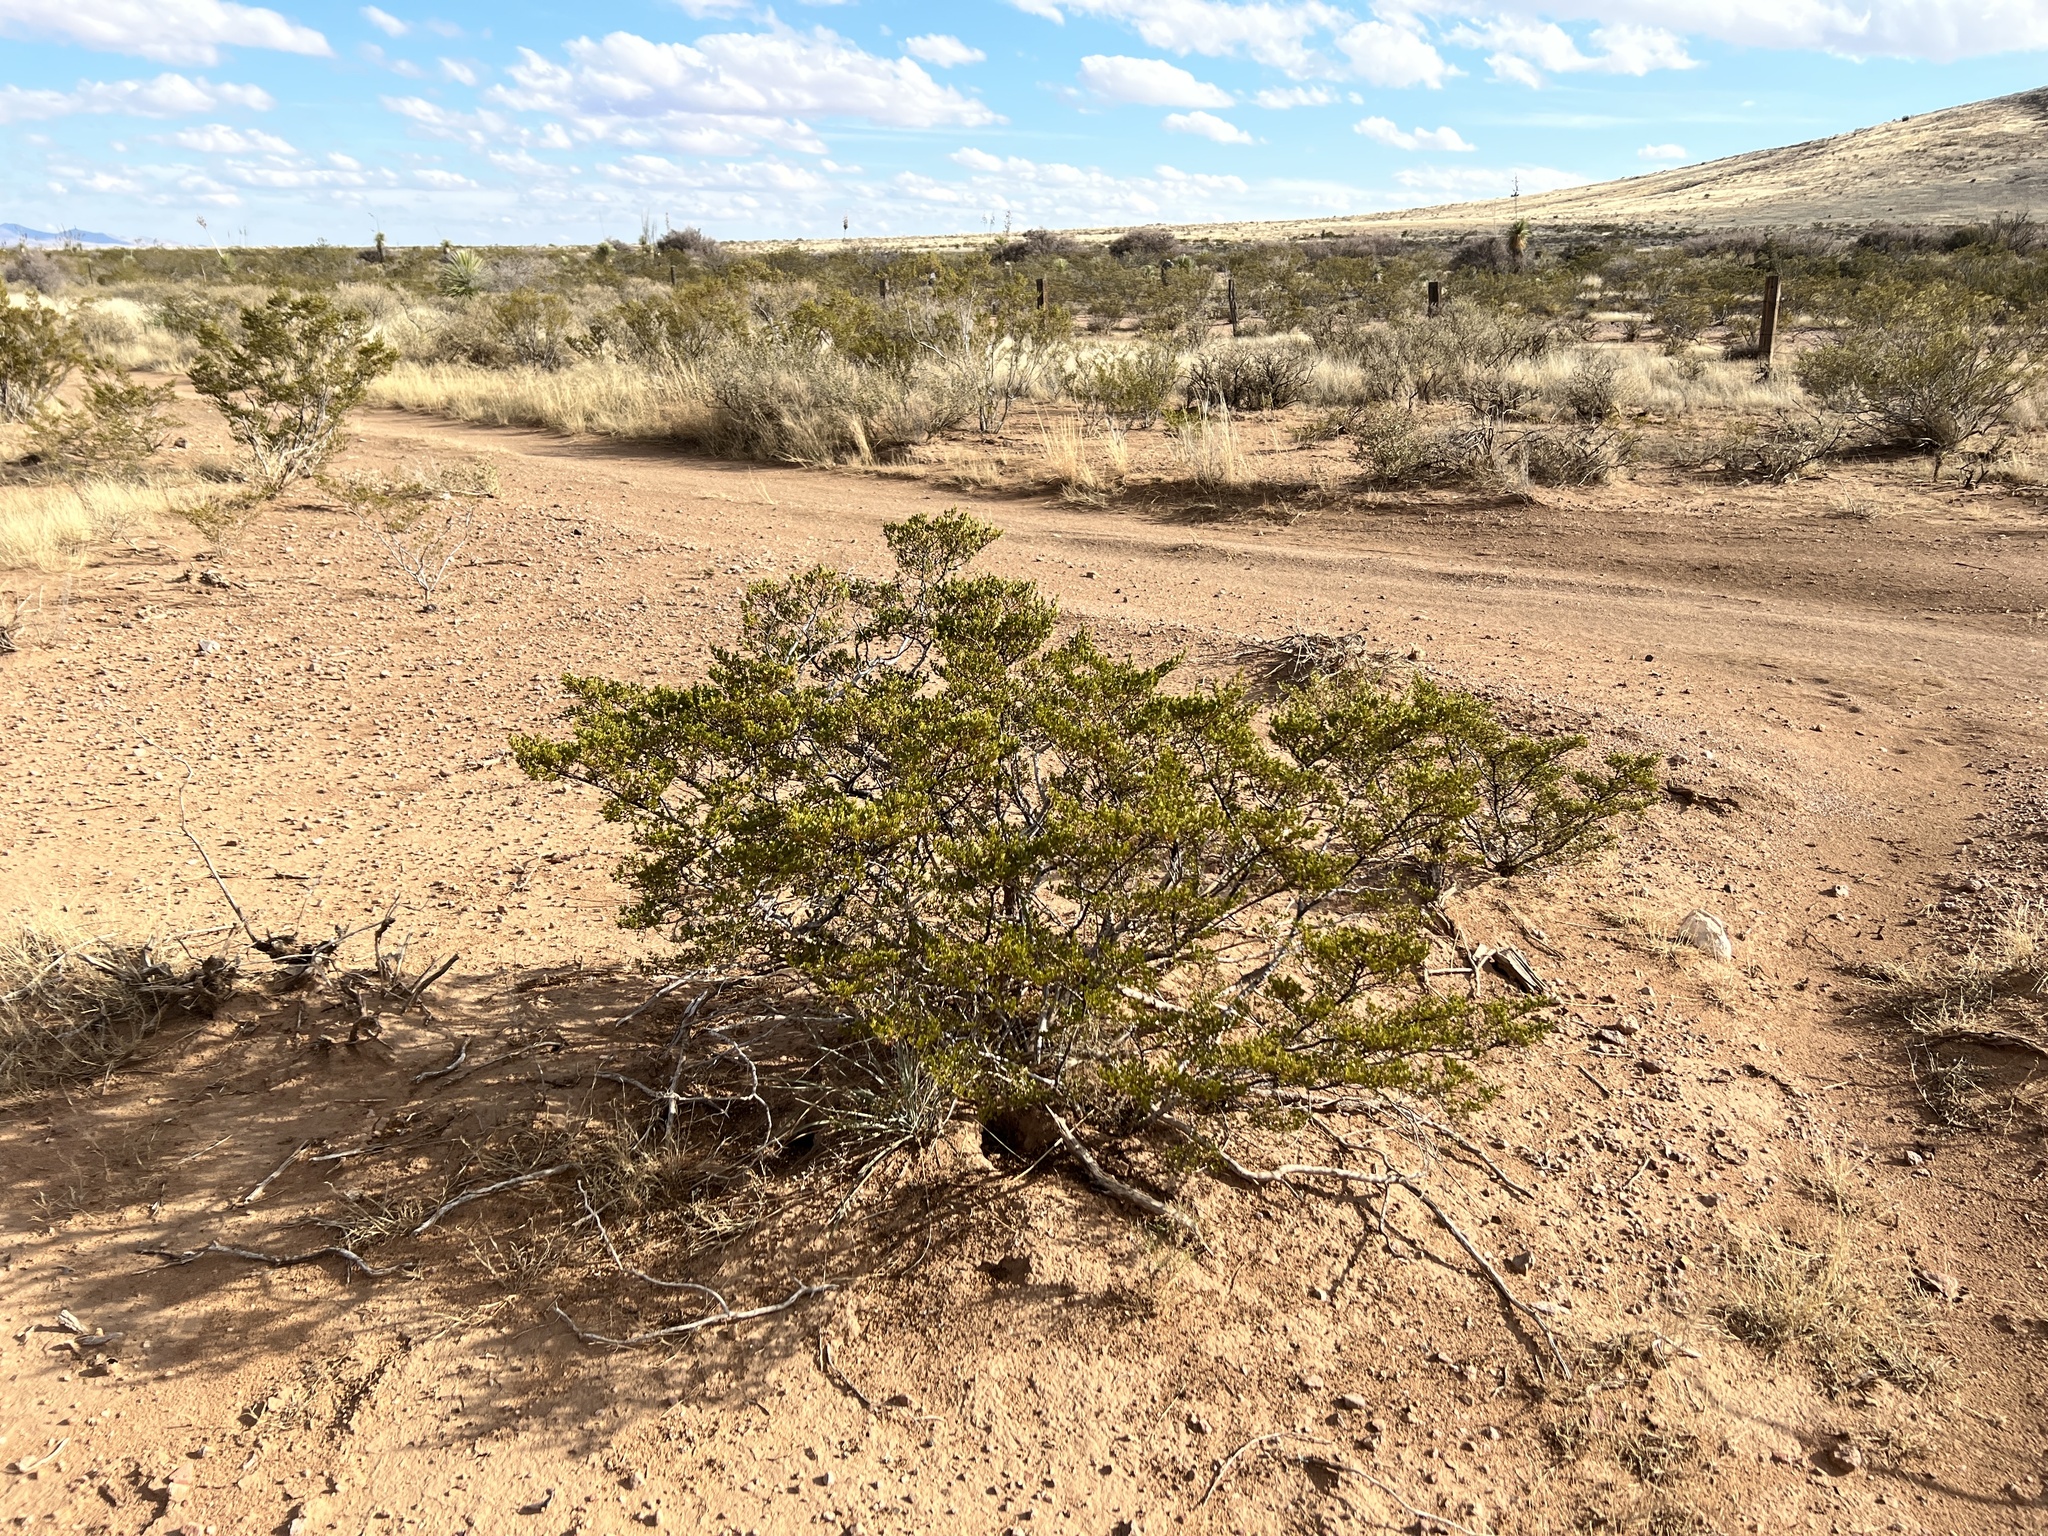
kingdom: Plantae
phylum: Tracheophyta
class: Magnoliopsida
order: Zygophyllales
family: Zygophyllaceae
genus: Larrea
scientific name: Larrea tridentata
